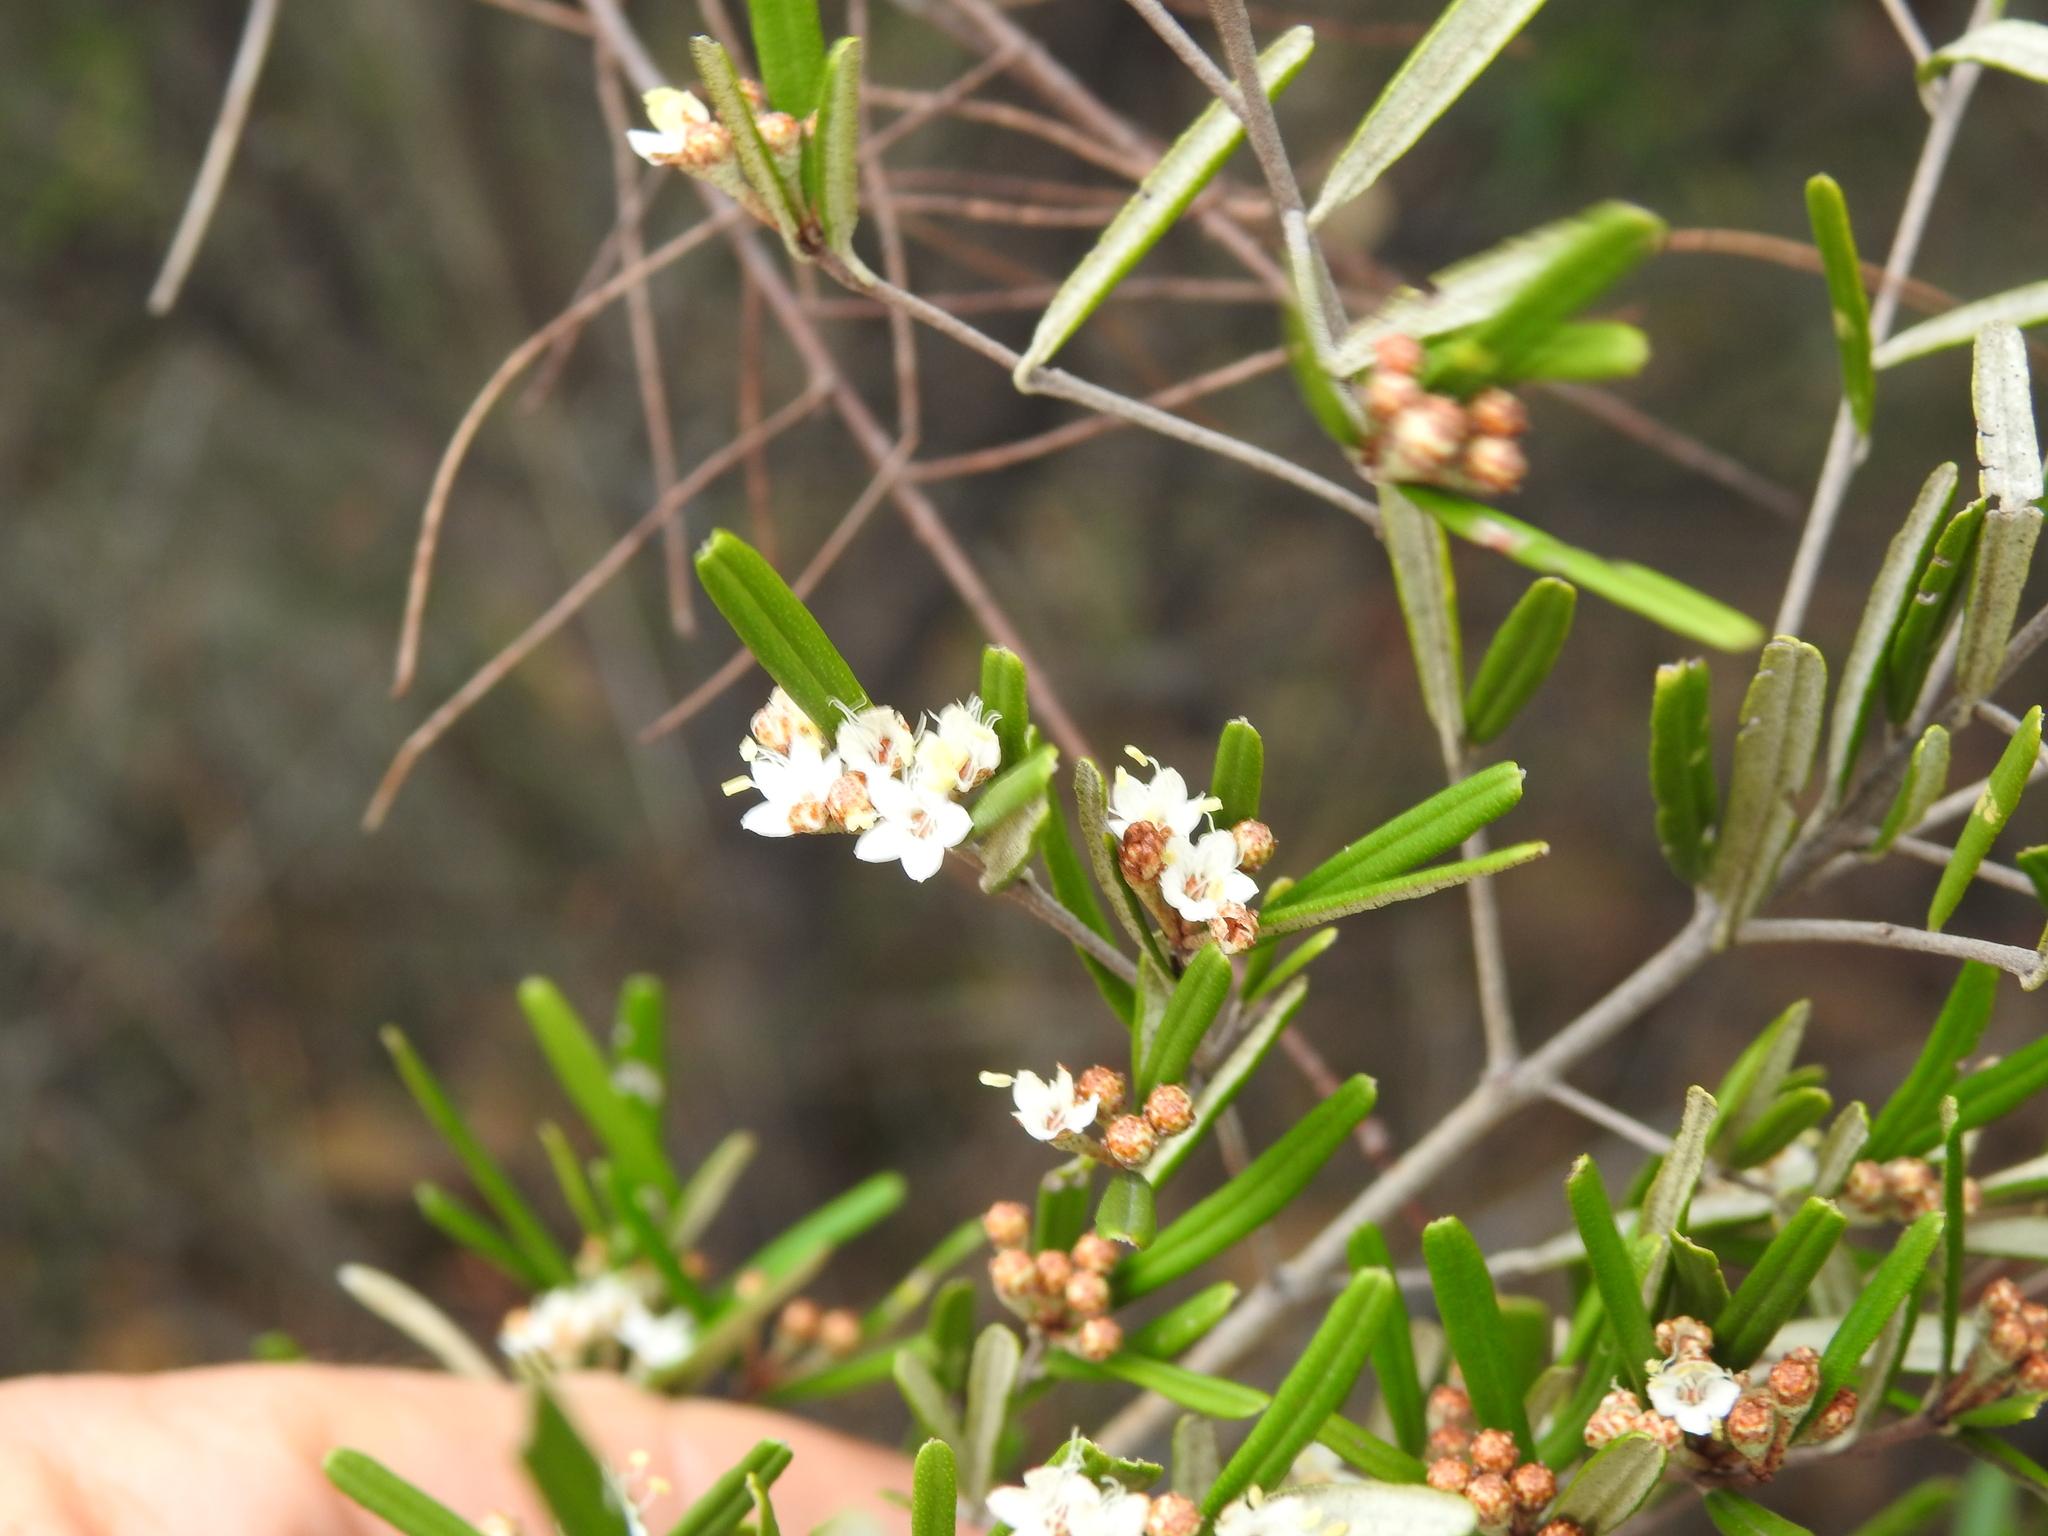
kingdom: Plantae
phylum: Tracheophyta
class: Magnoliopsida
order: Sapindales
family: Rutaceae
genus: Phebalium
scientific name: Phebalium woombye
